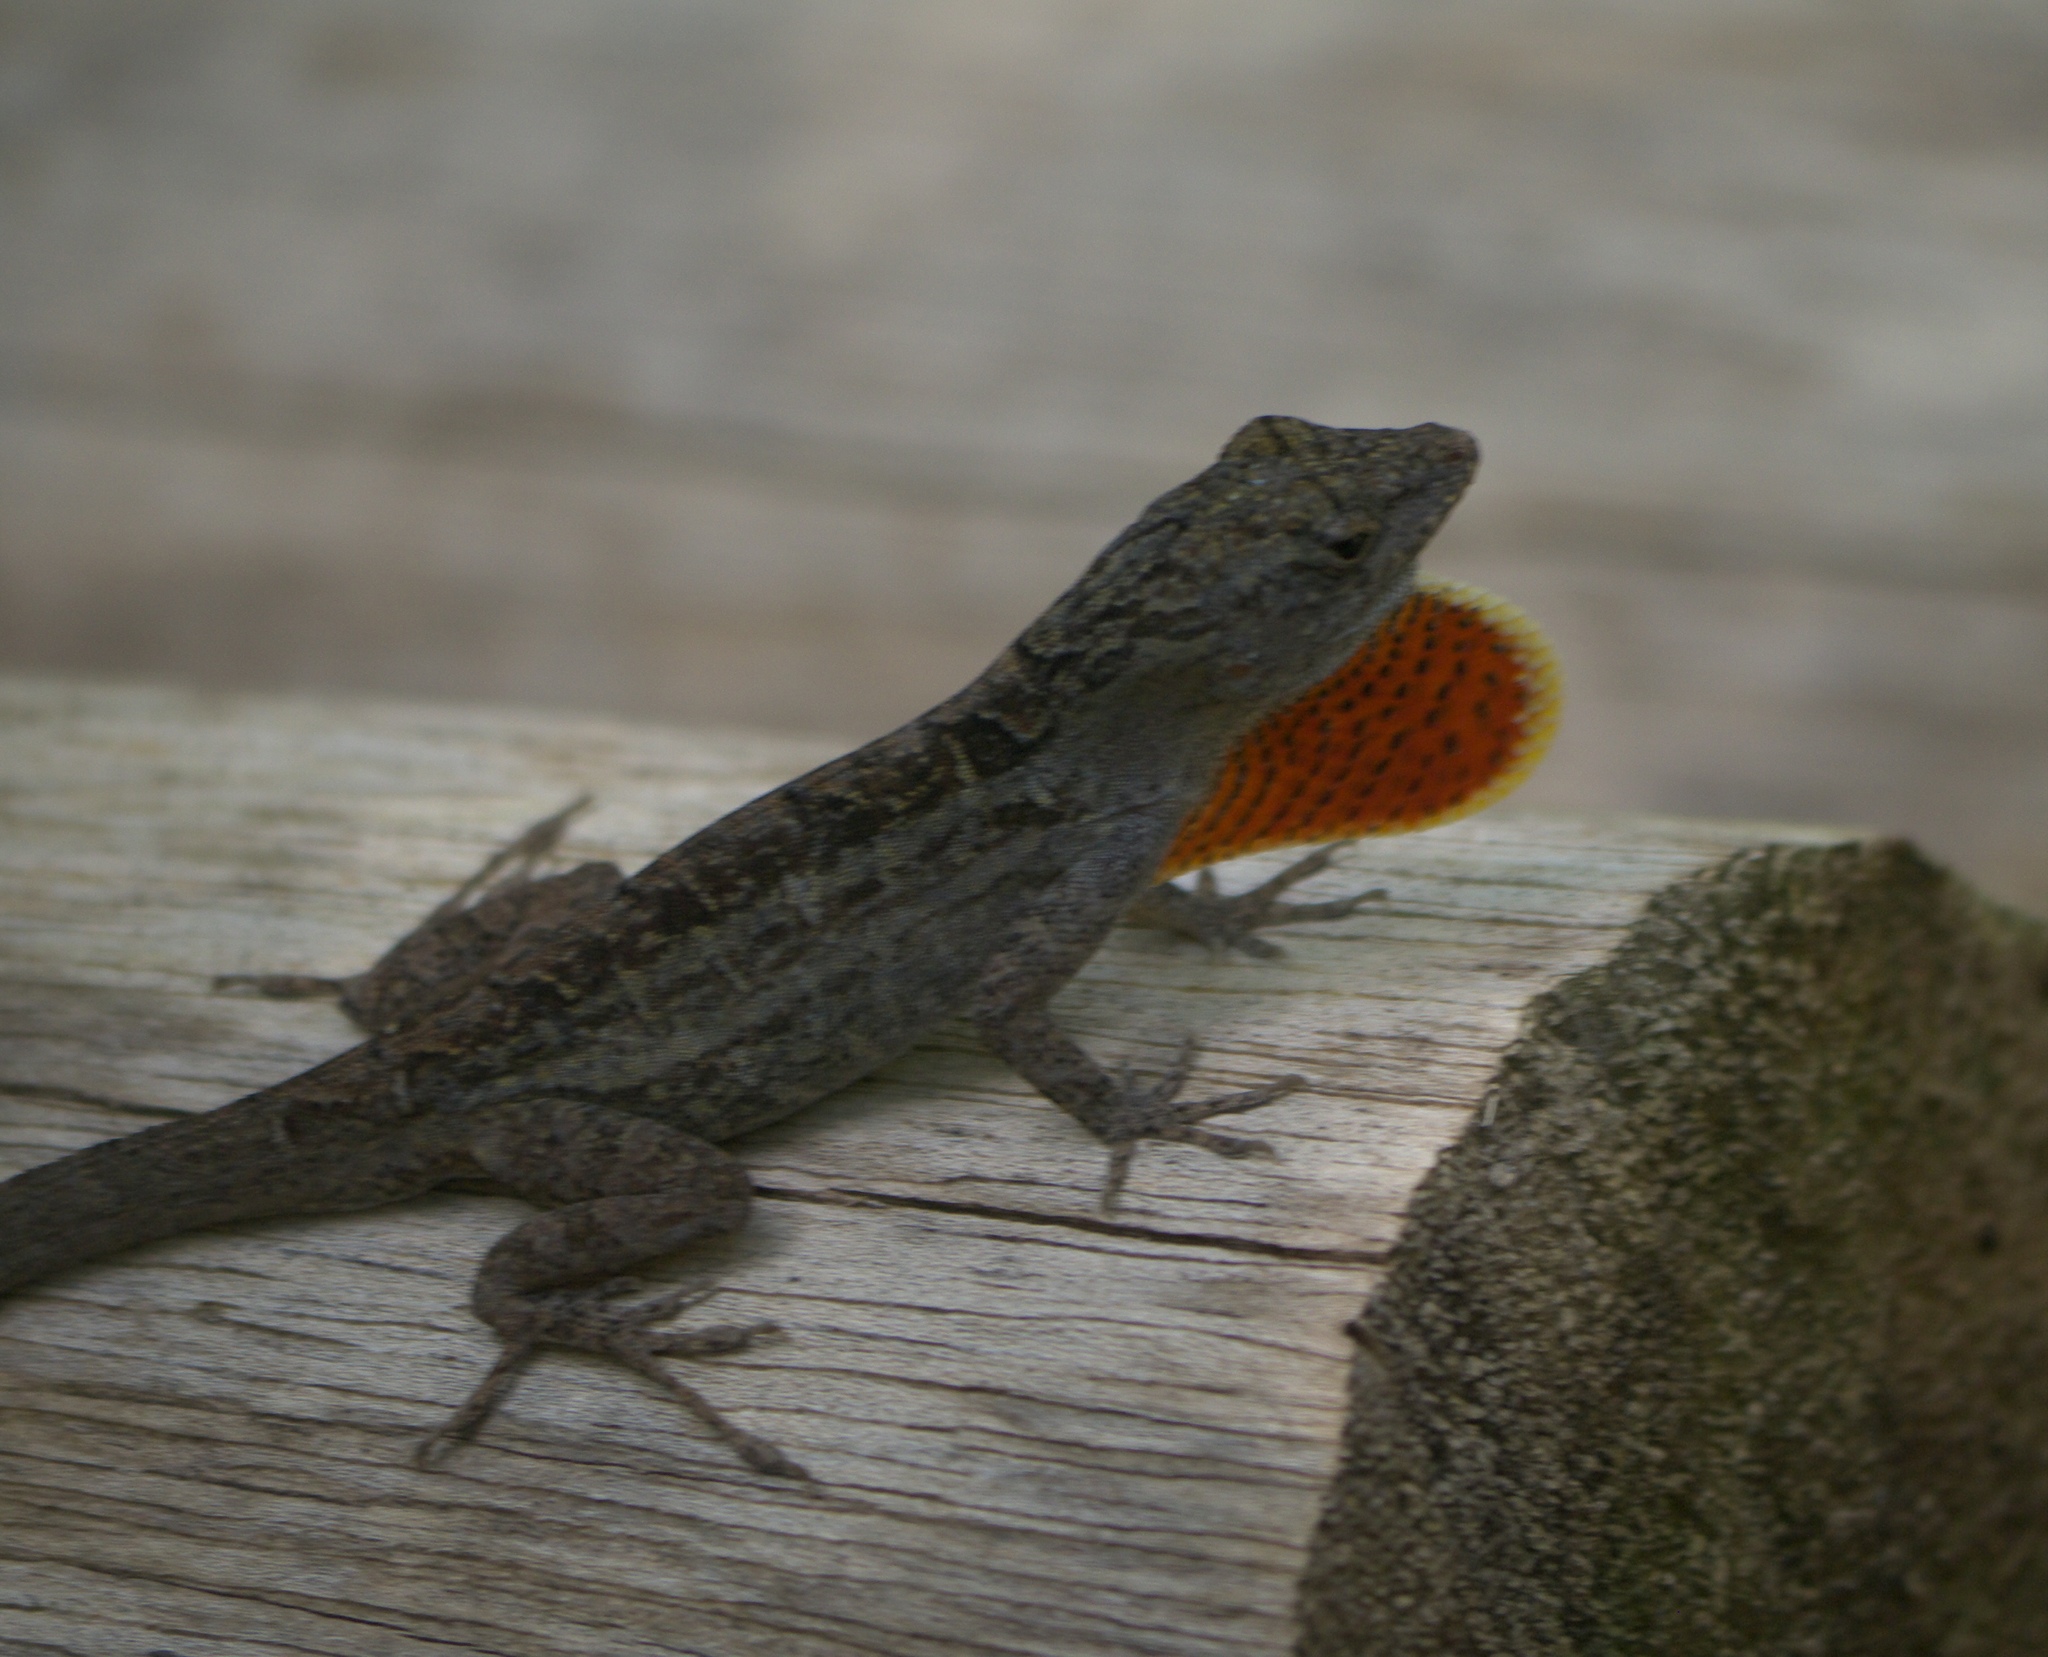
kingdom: Animalia
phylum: Chordata
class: Squamata
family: Dactyloidae
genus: Anolis
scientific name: Anolis sagrei
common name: Brown anole
